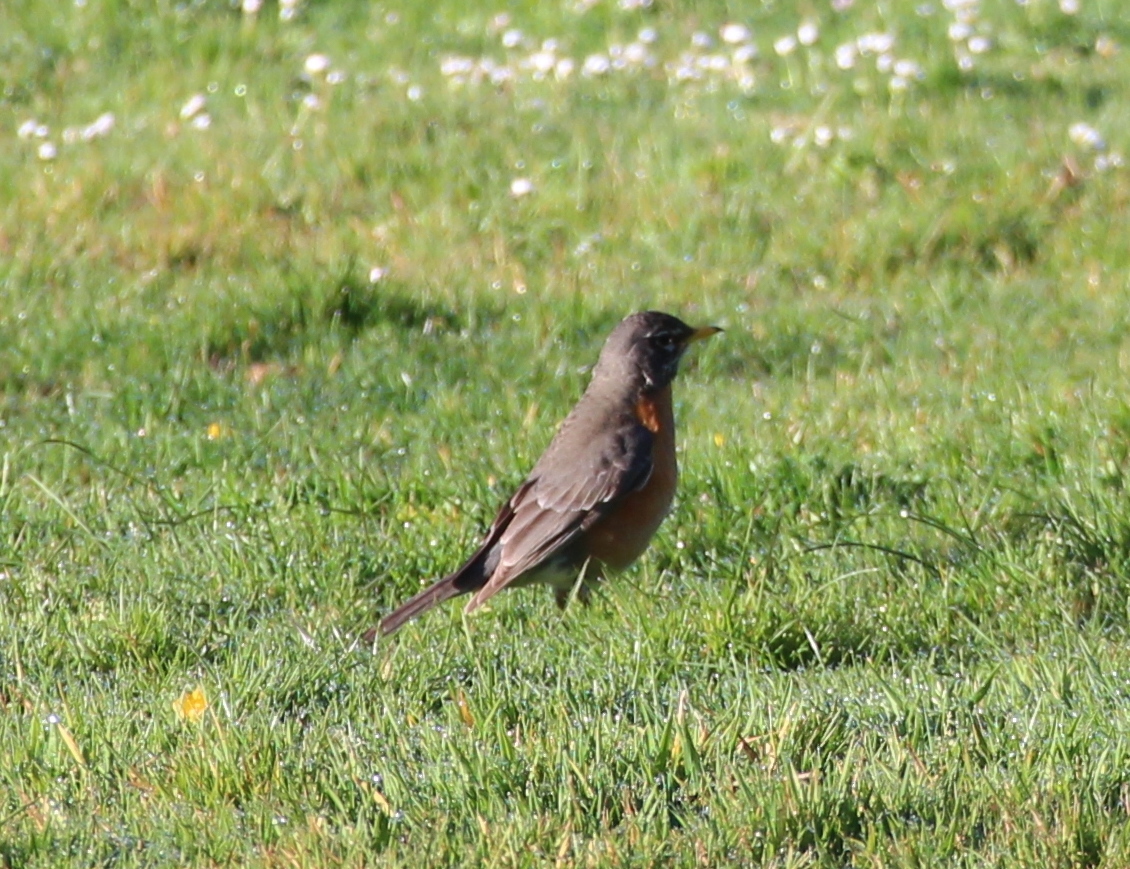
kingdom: Animalia
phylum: Chordata
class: Aves
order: Passeriformes
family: Turdidae
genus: Turdus
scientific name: Turdus migratorius
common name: American robin
